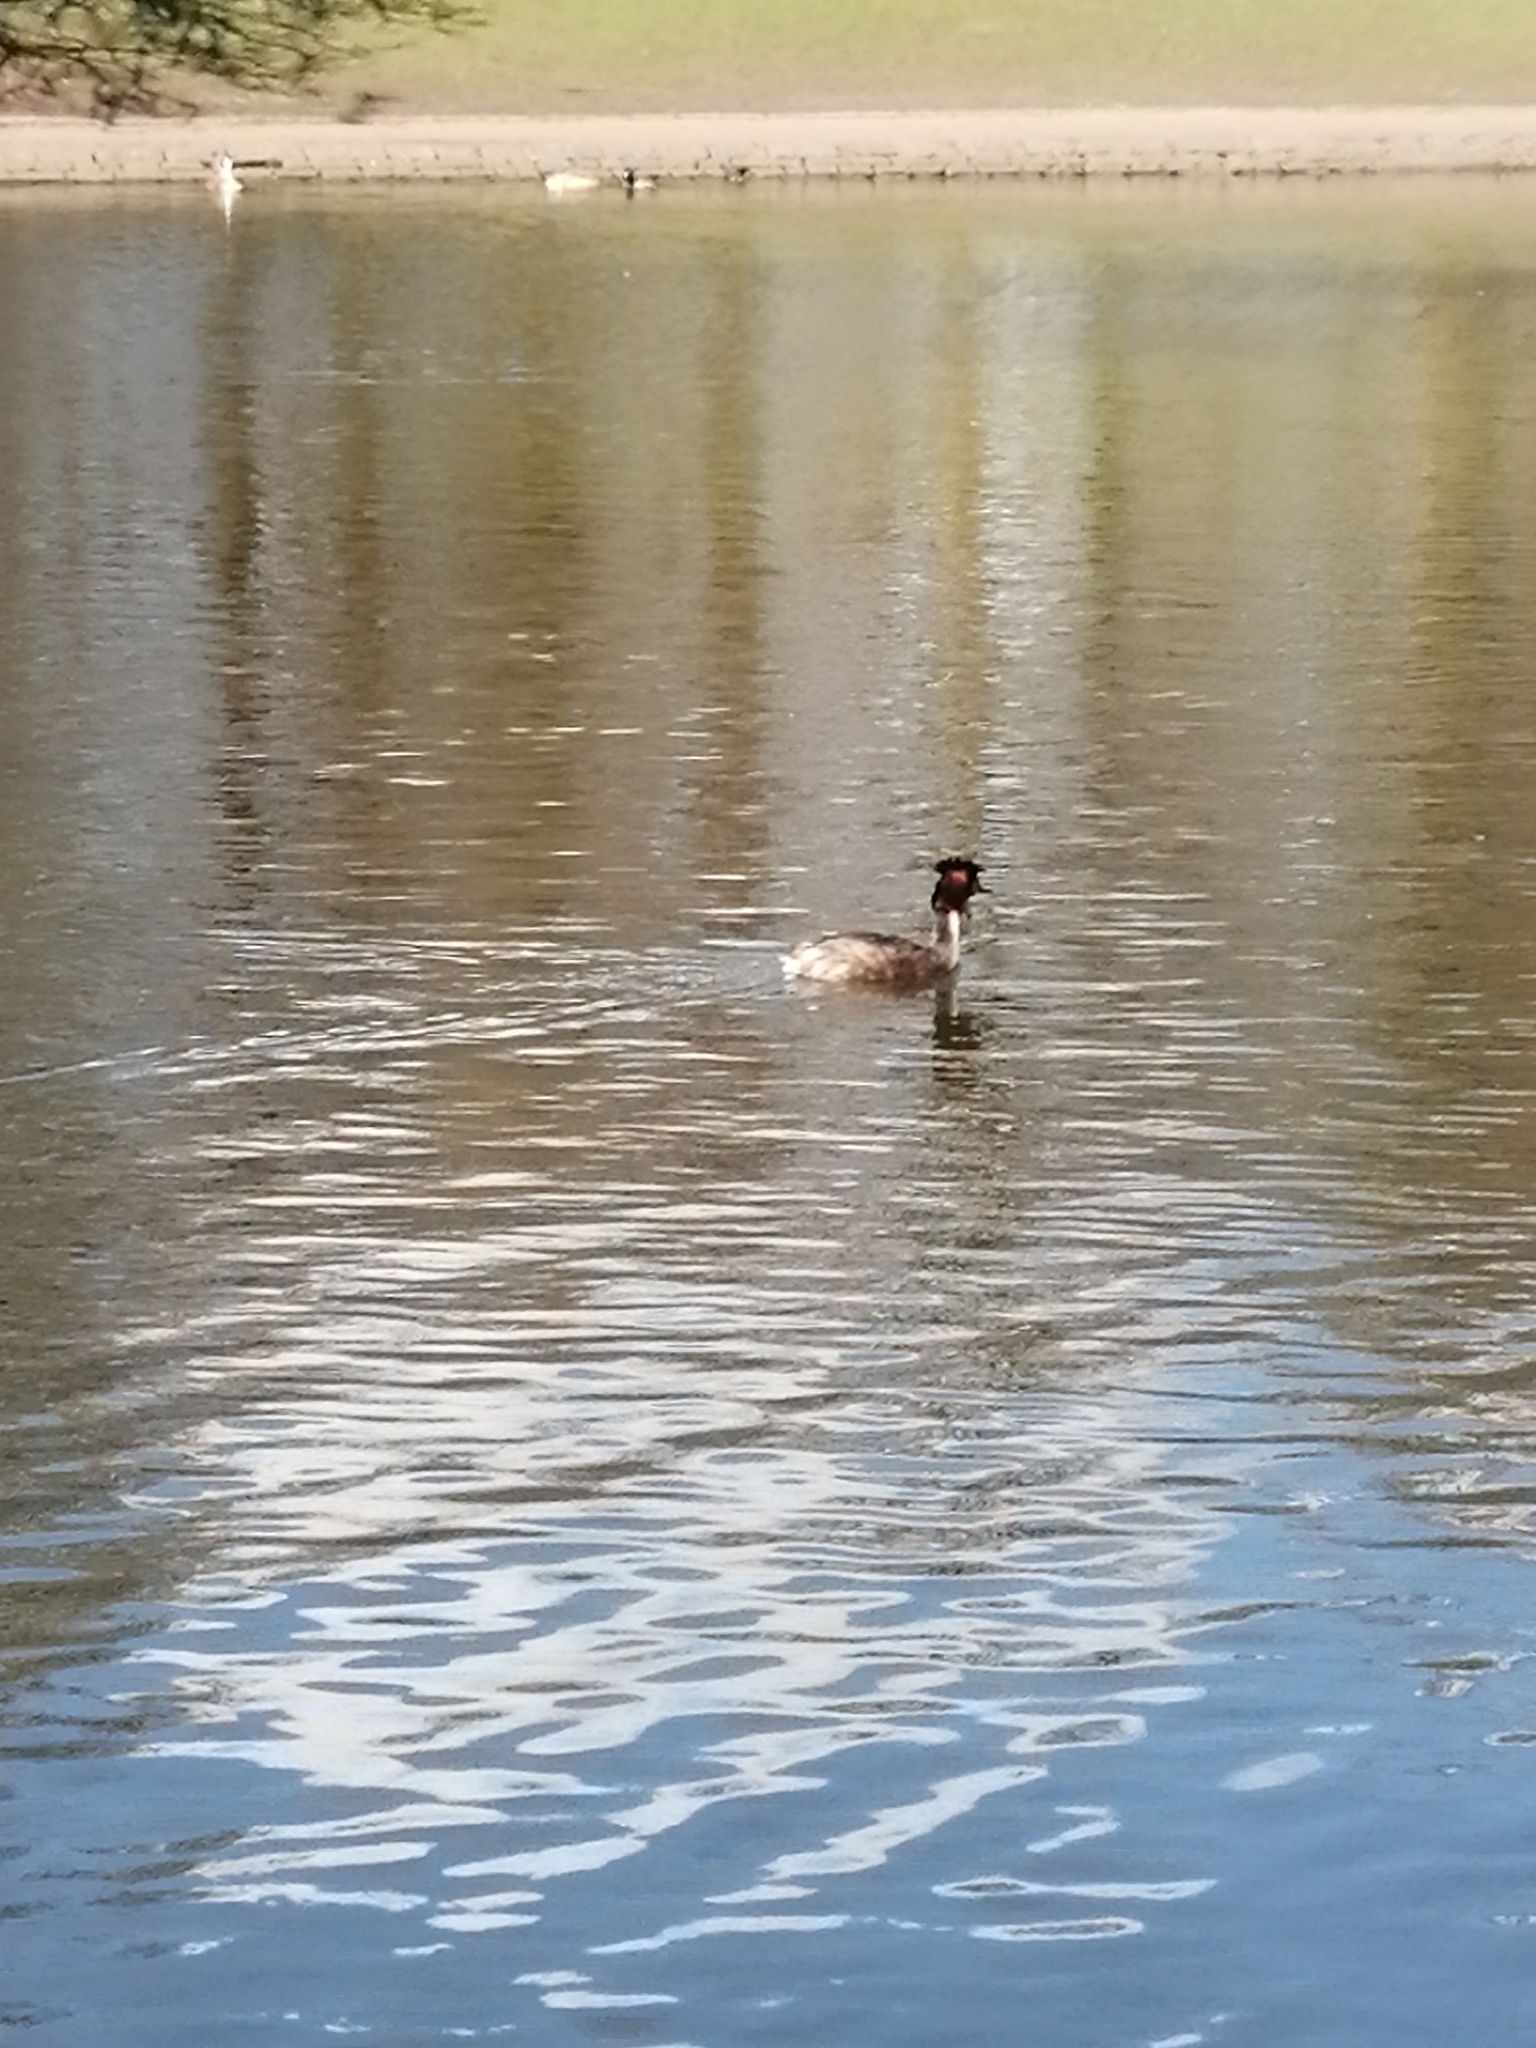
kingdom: Animalia
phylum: Chordata
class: Aves
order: Podicipediformes
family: Podicipedidae
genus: Podiceps
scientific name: Podiceps cristatus
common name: Great crested grebe
